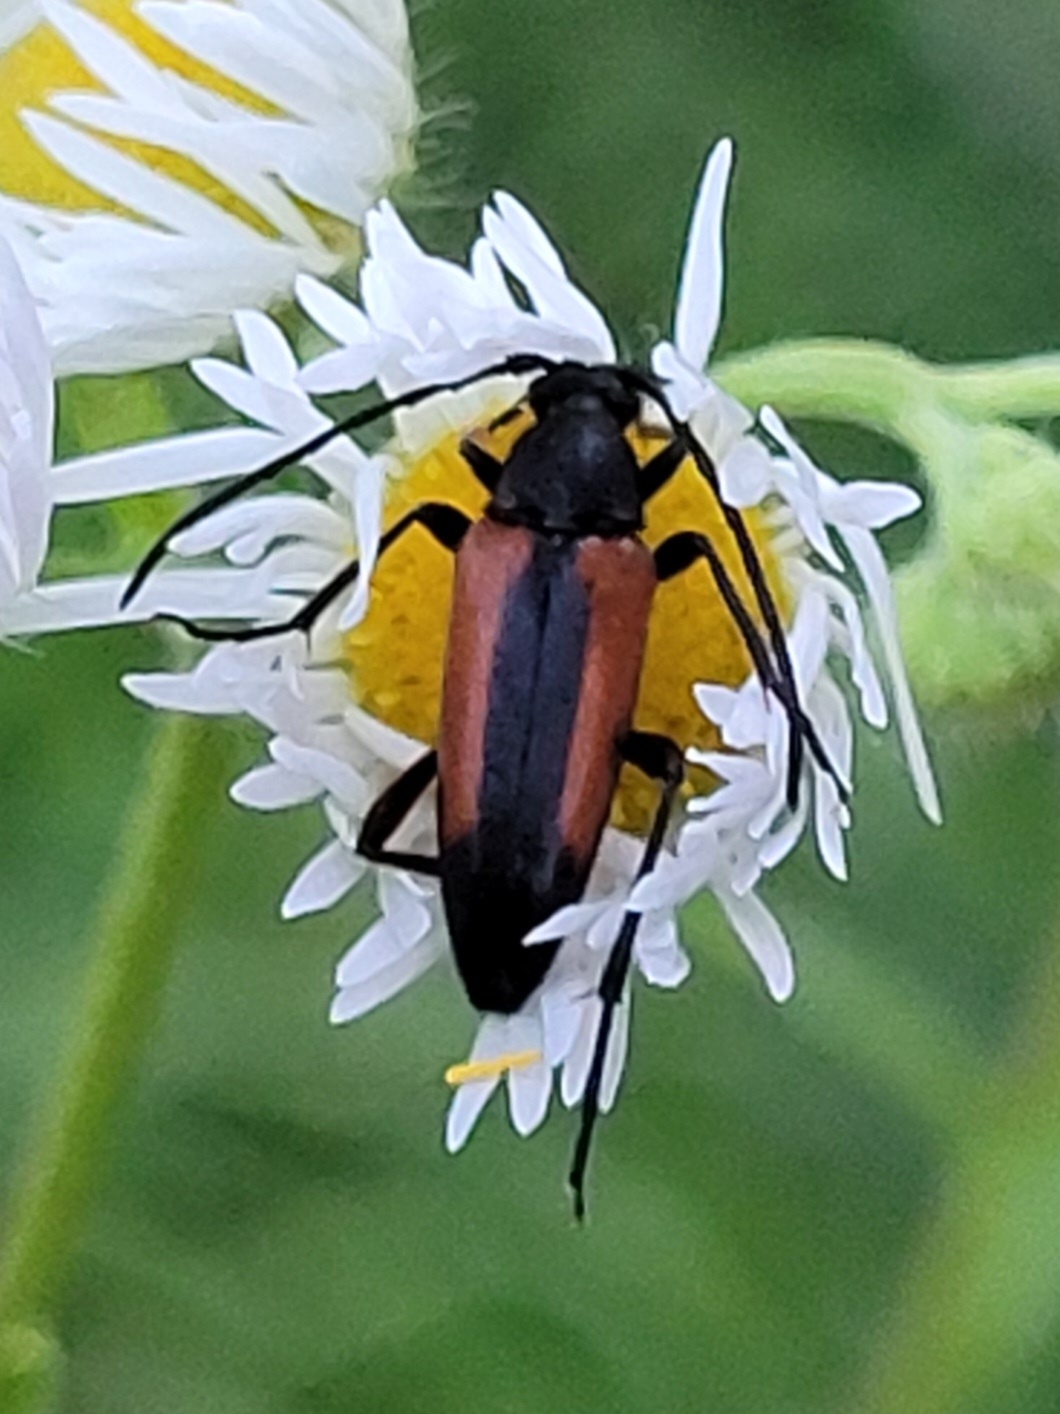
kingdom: Animalia
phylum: Arthropoda
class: Insecta
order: Coleoptera
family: Cerambycidae
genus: Stenurella
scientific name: Stenurella melanura
